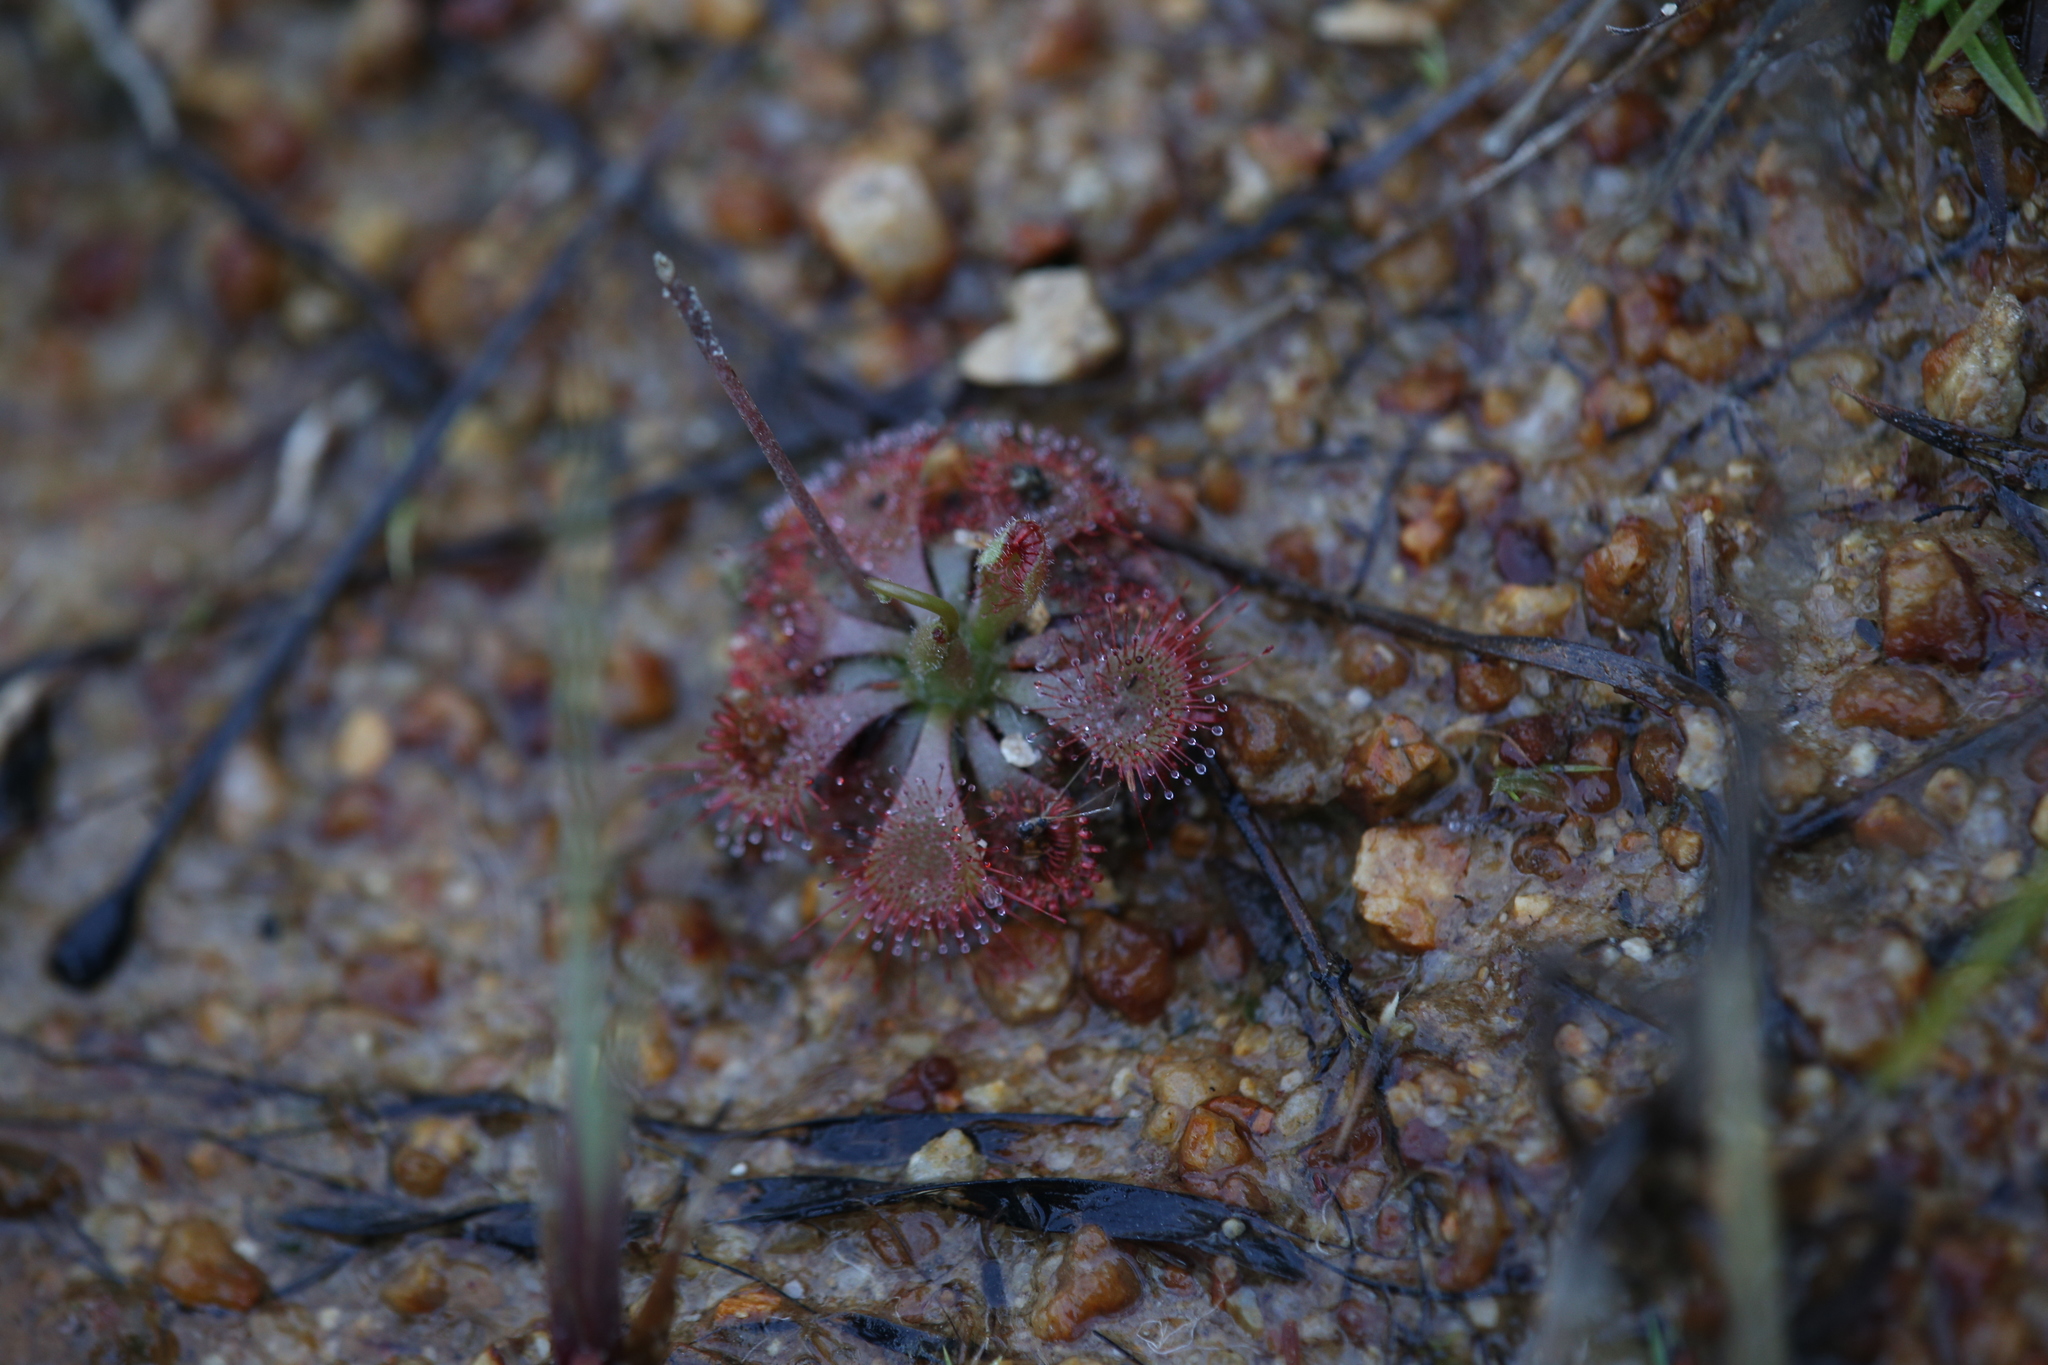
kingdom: Plantae
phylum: Tracheophyta
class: Magnoliopsida
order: Caryophyllales
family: Droseraceae
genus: Drosera
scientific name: Drosera spatulata
